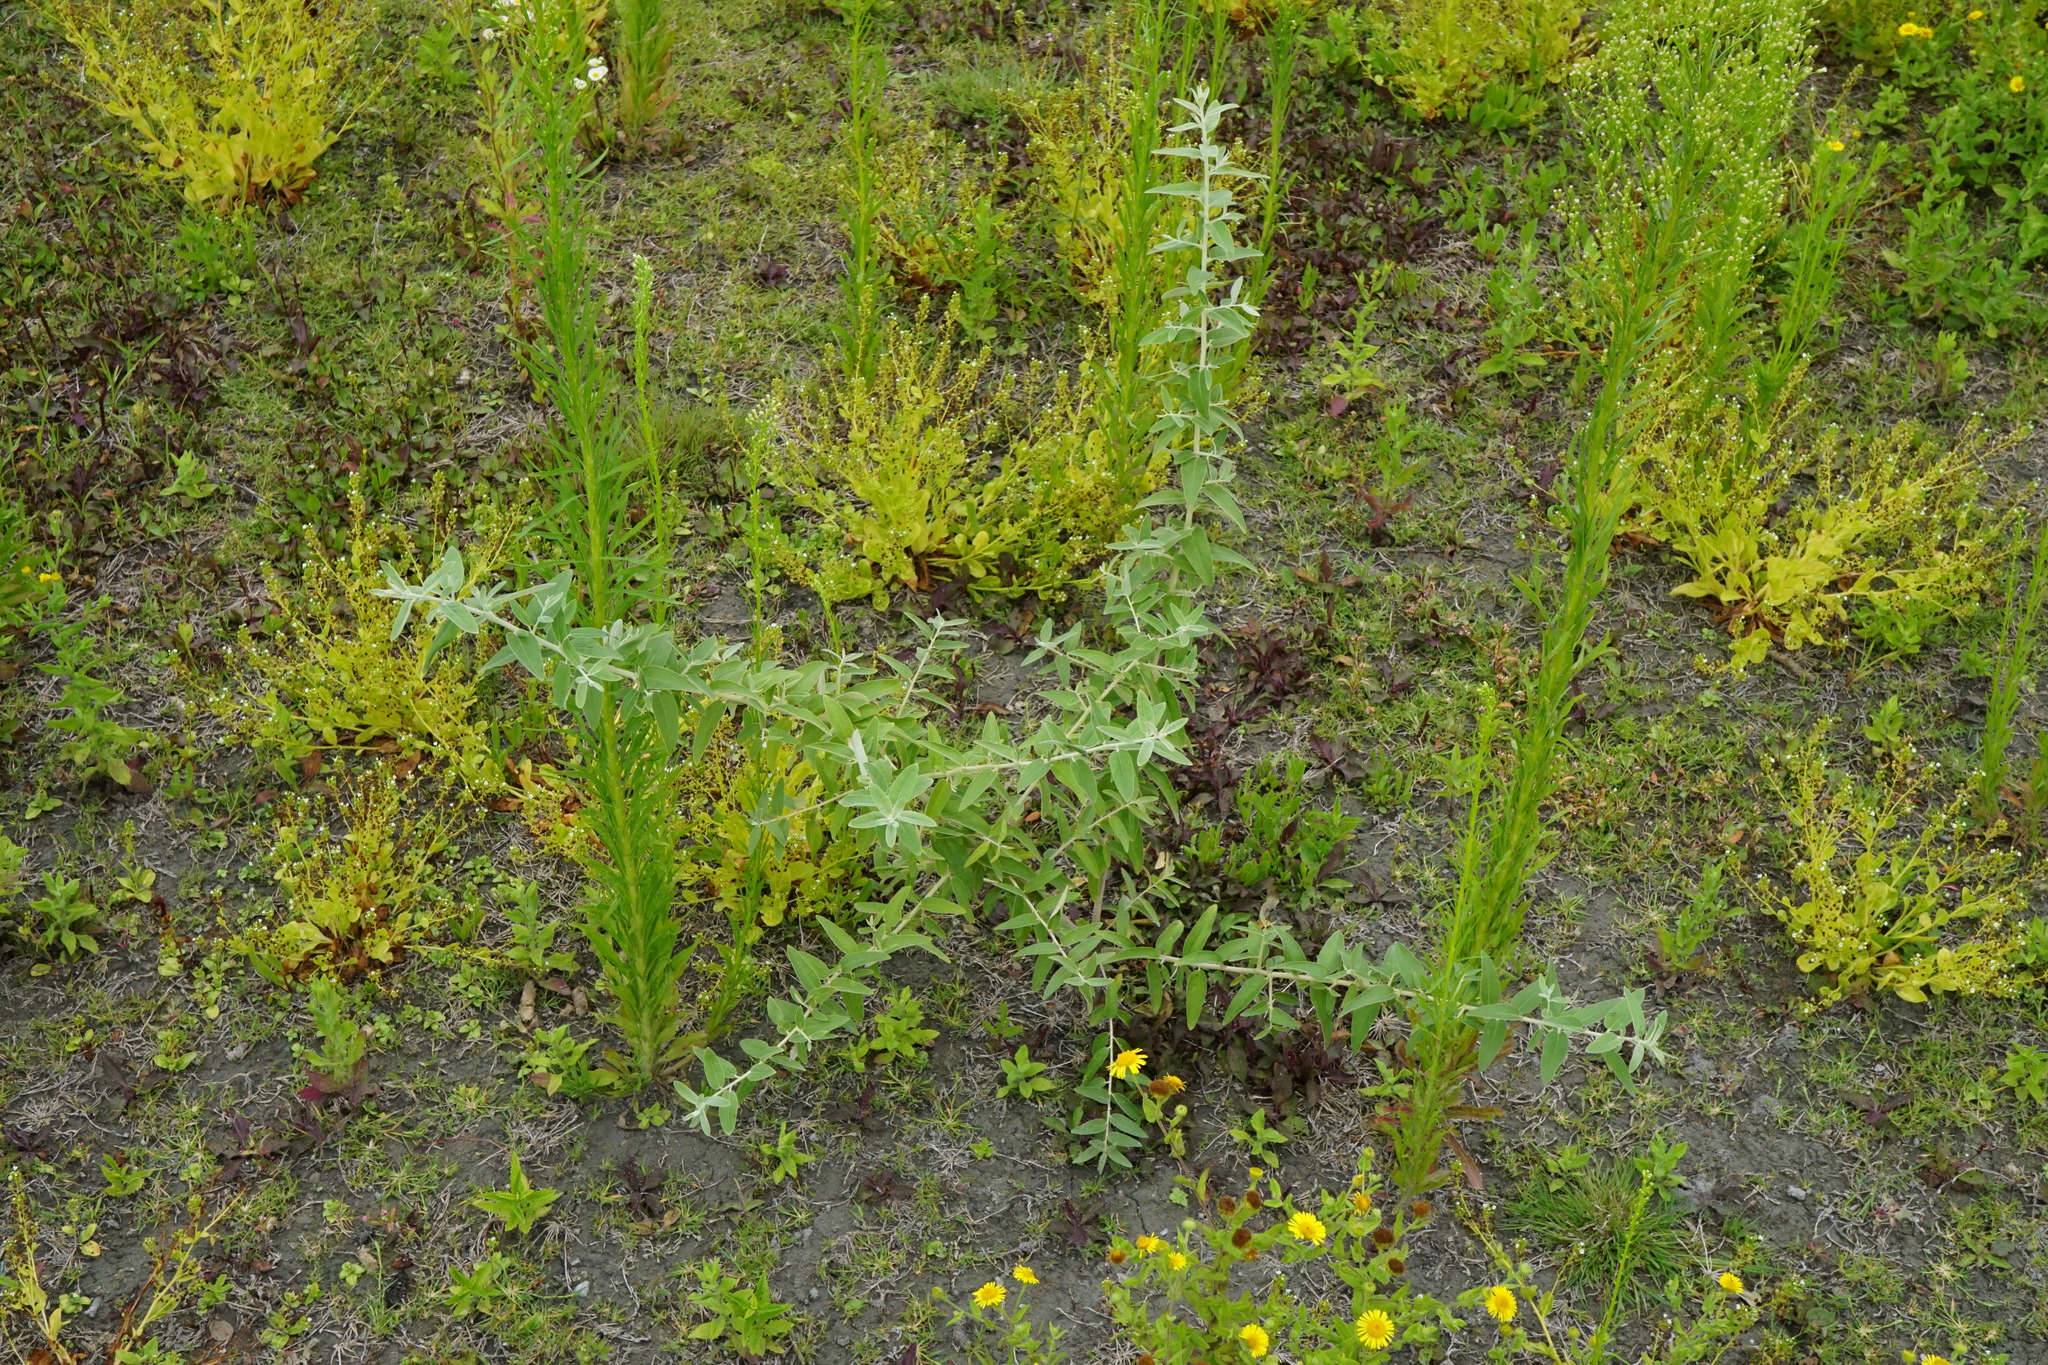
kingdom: Plantae
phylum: Tracheophyta
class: Magnoliopsida
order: Rosales
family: Elaeagnaceae
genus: Elaeagnus
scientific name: Elaeagnus angustifolia
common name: Russian olive
